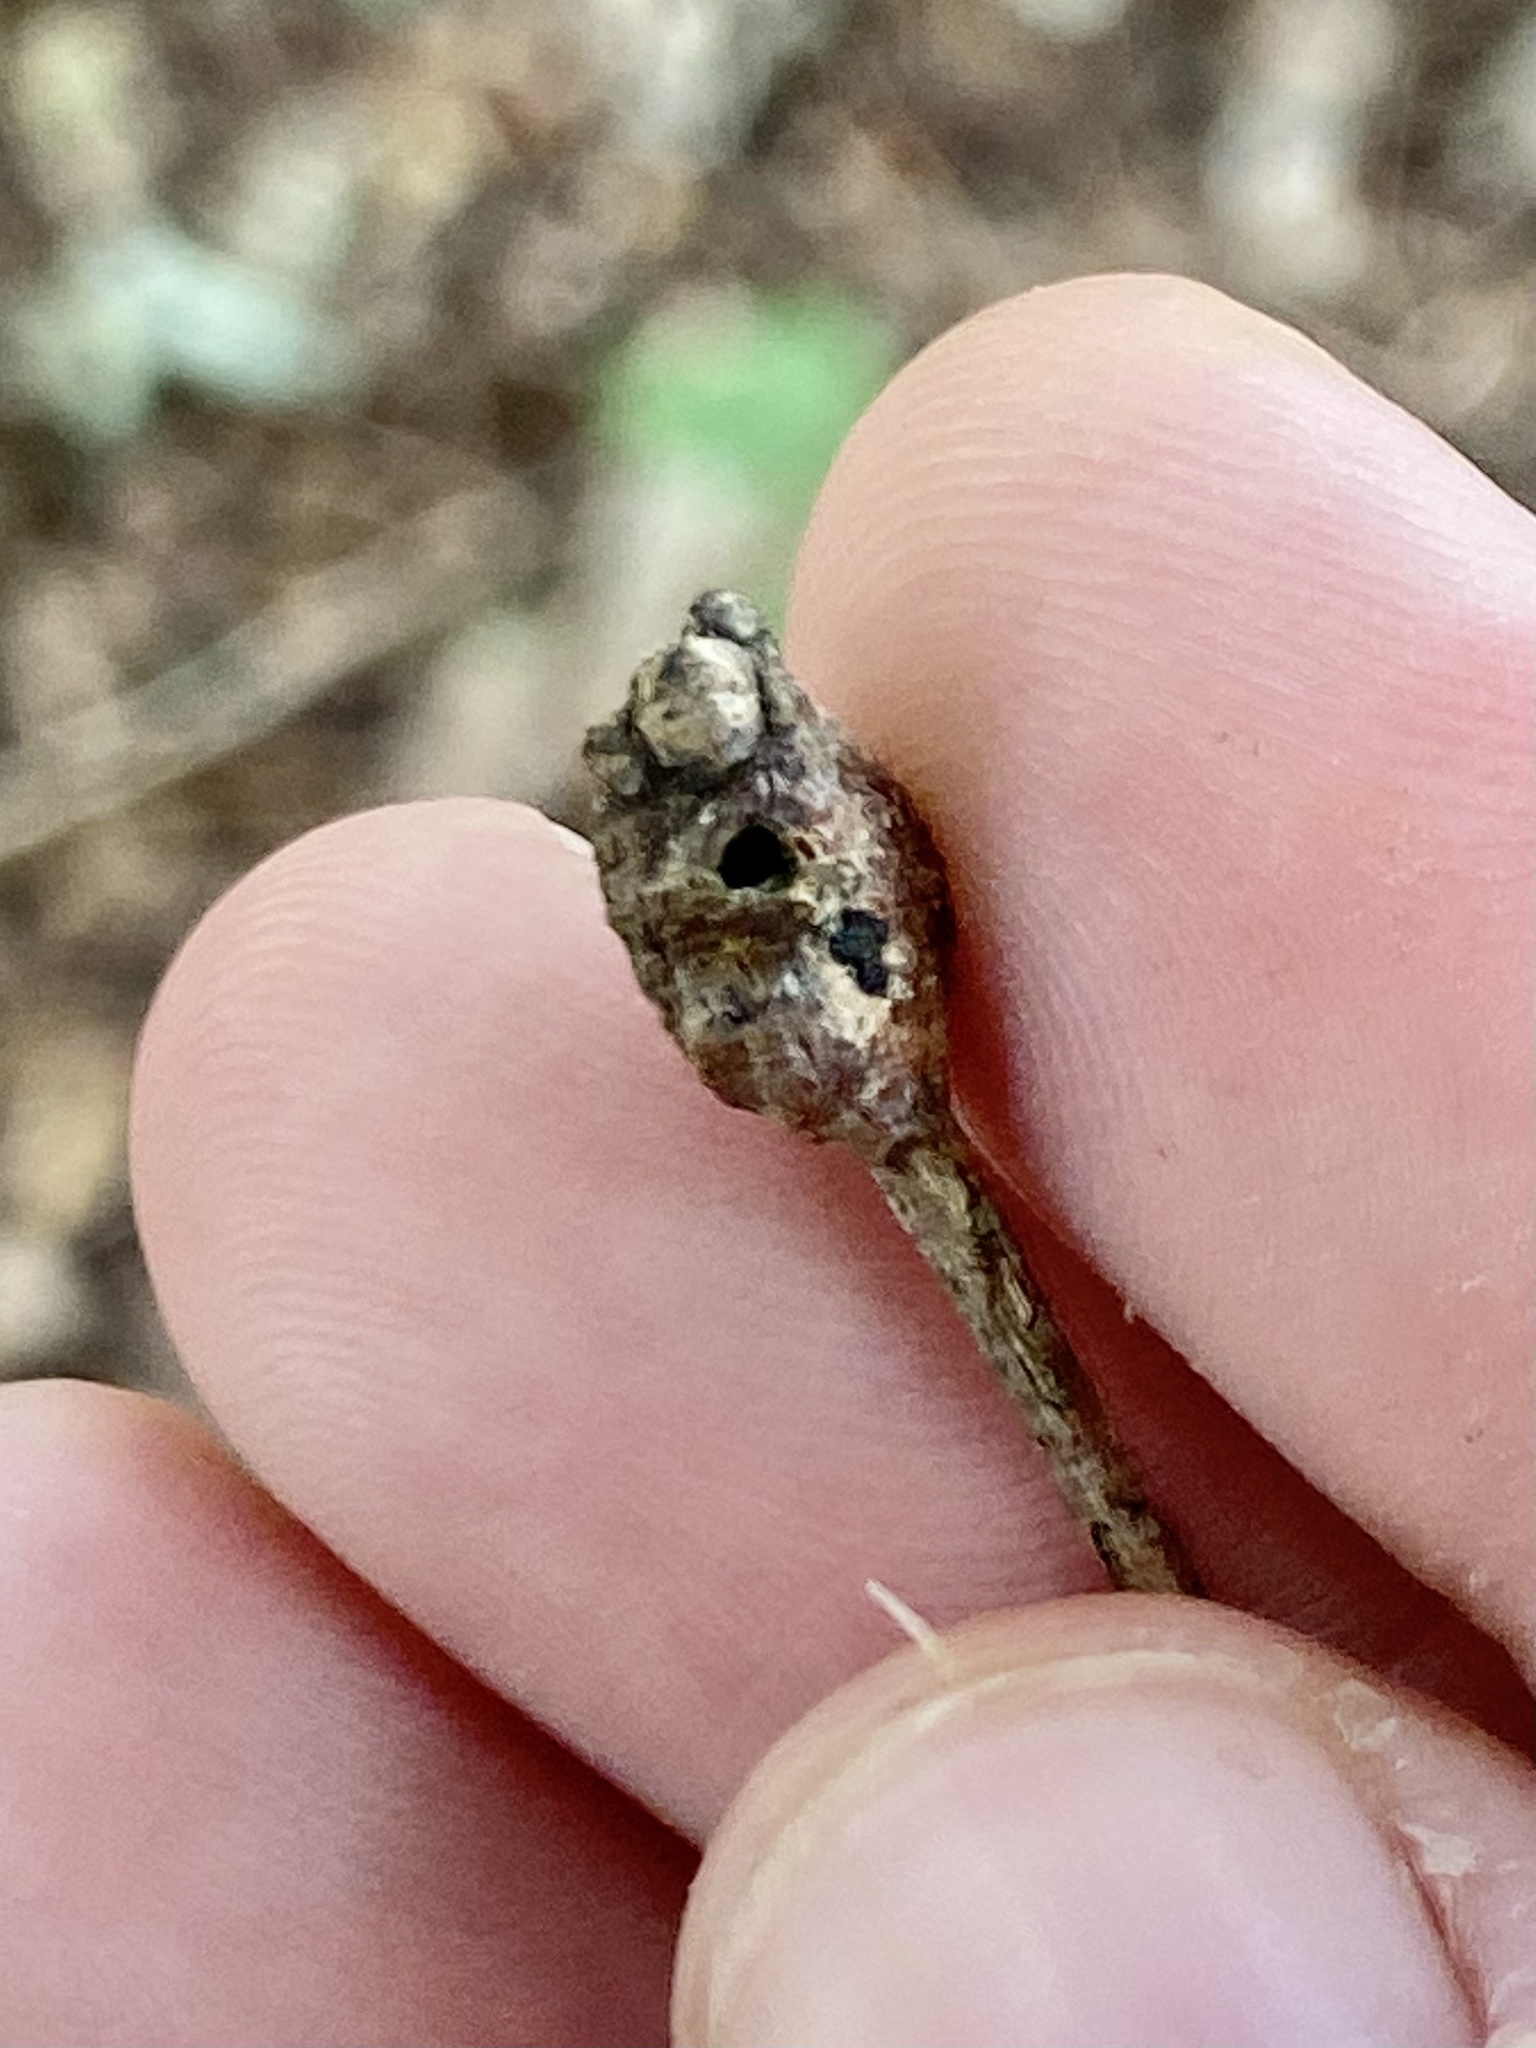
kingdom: Animalia
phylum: Arthropoda
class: Insecta
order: Hymenoptera
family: Cynipidae
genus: Callirhytis
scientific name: Callirhytis clavula
